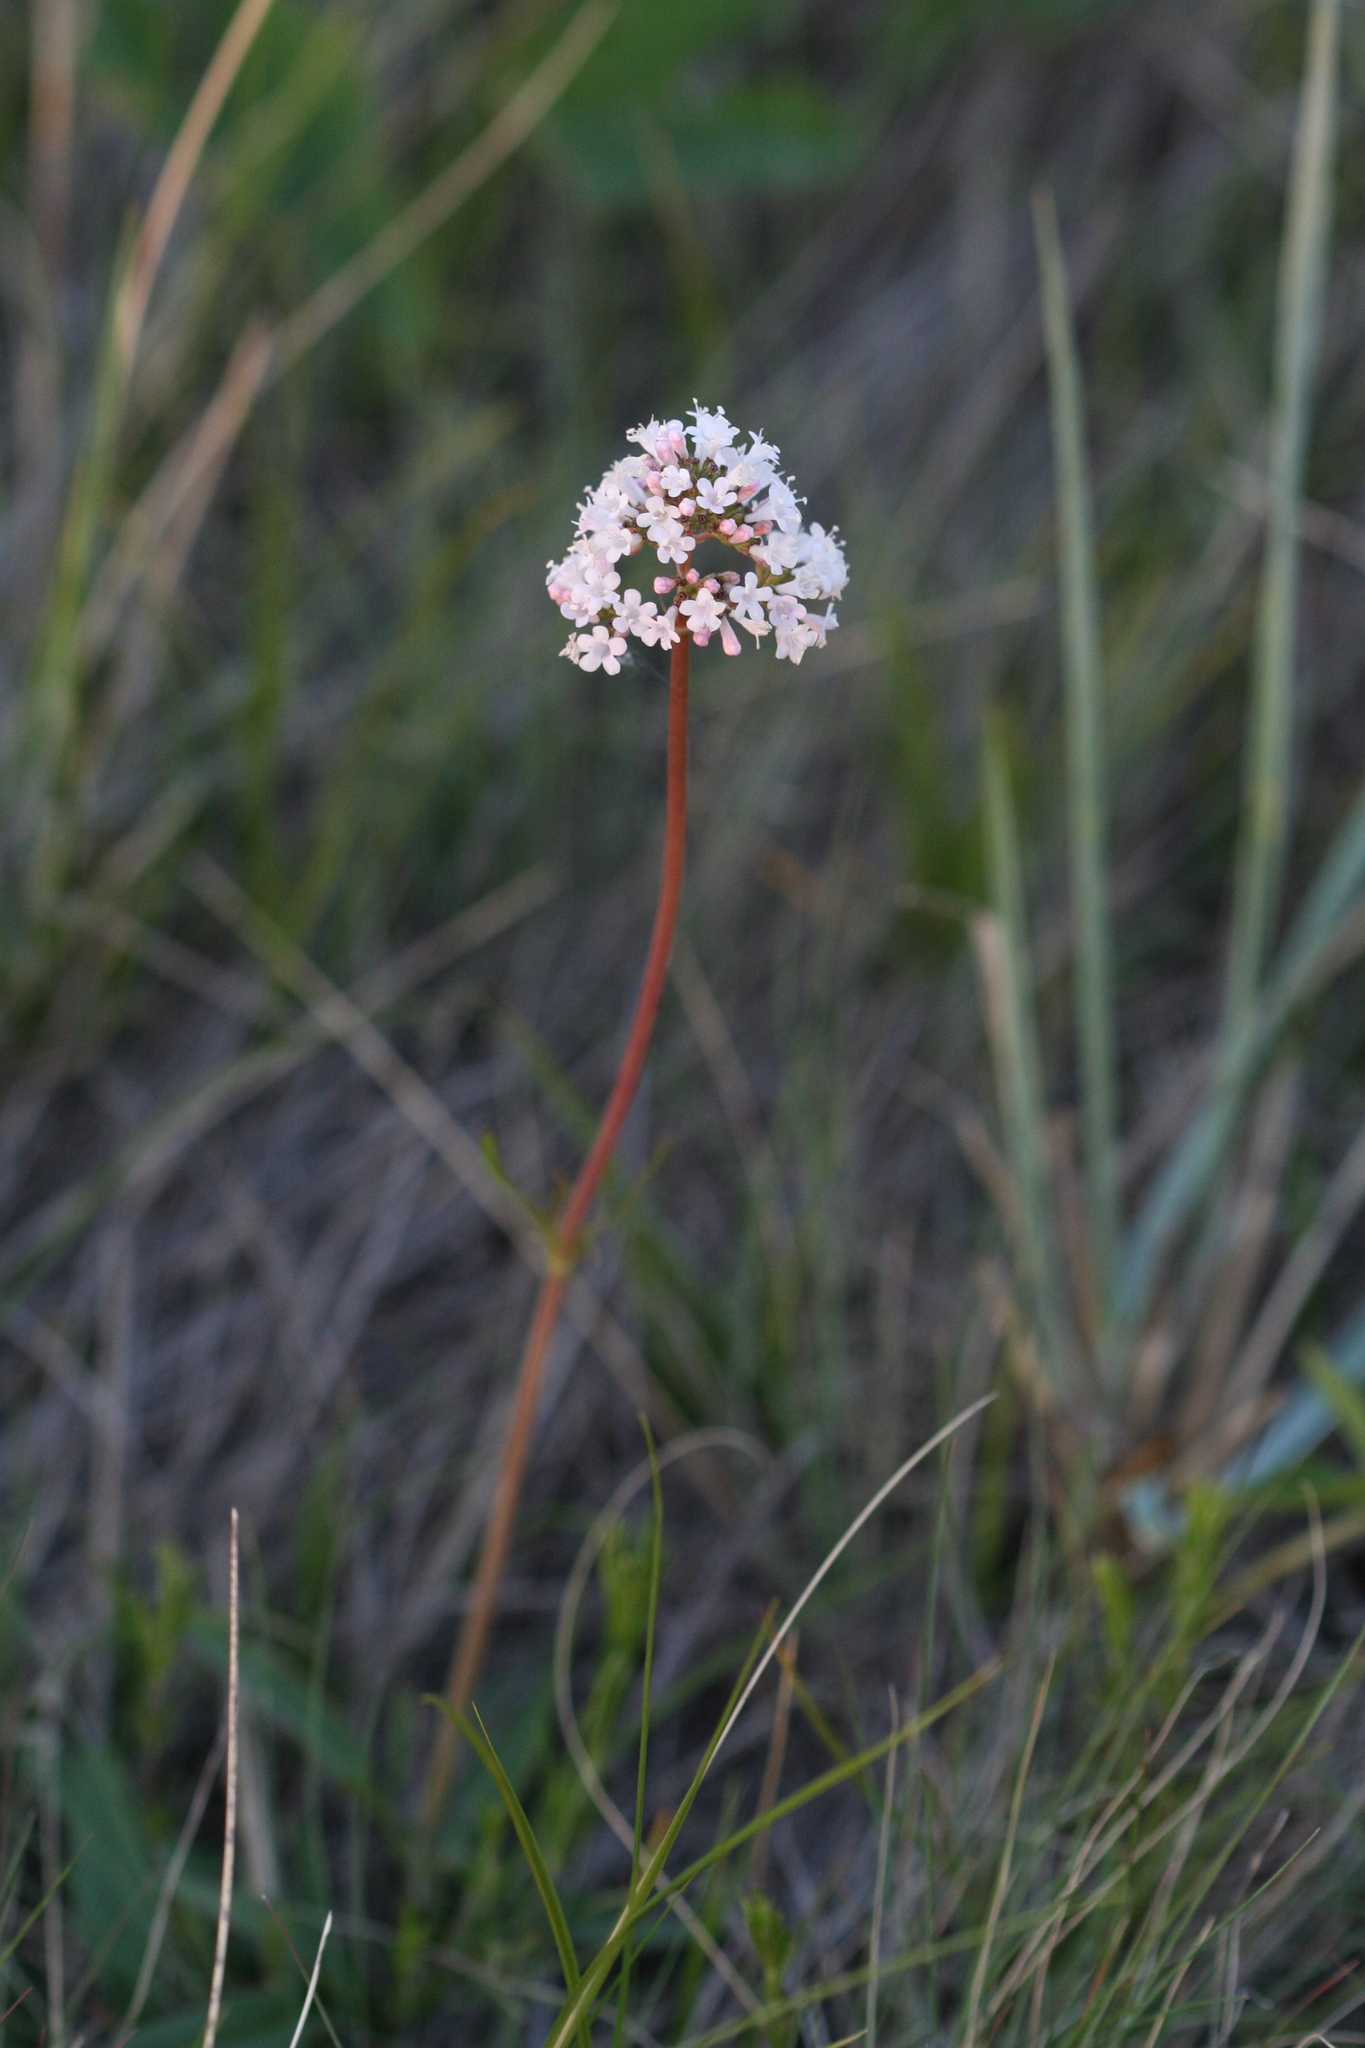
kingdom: Plantae
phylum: Tracheophyta
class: Magnoliopsida
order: Dipsacales
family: Caprifoliaceae
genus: Valeriana
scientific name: Valeriana tuberosa
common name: Tuberous valerian
